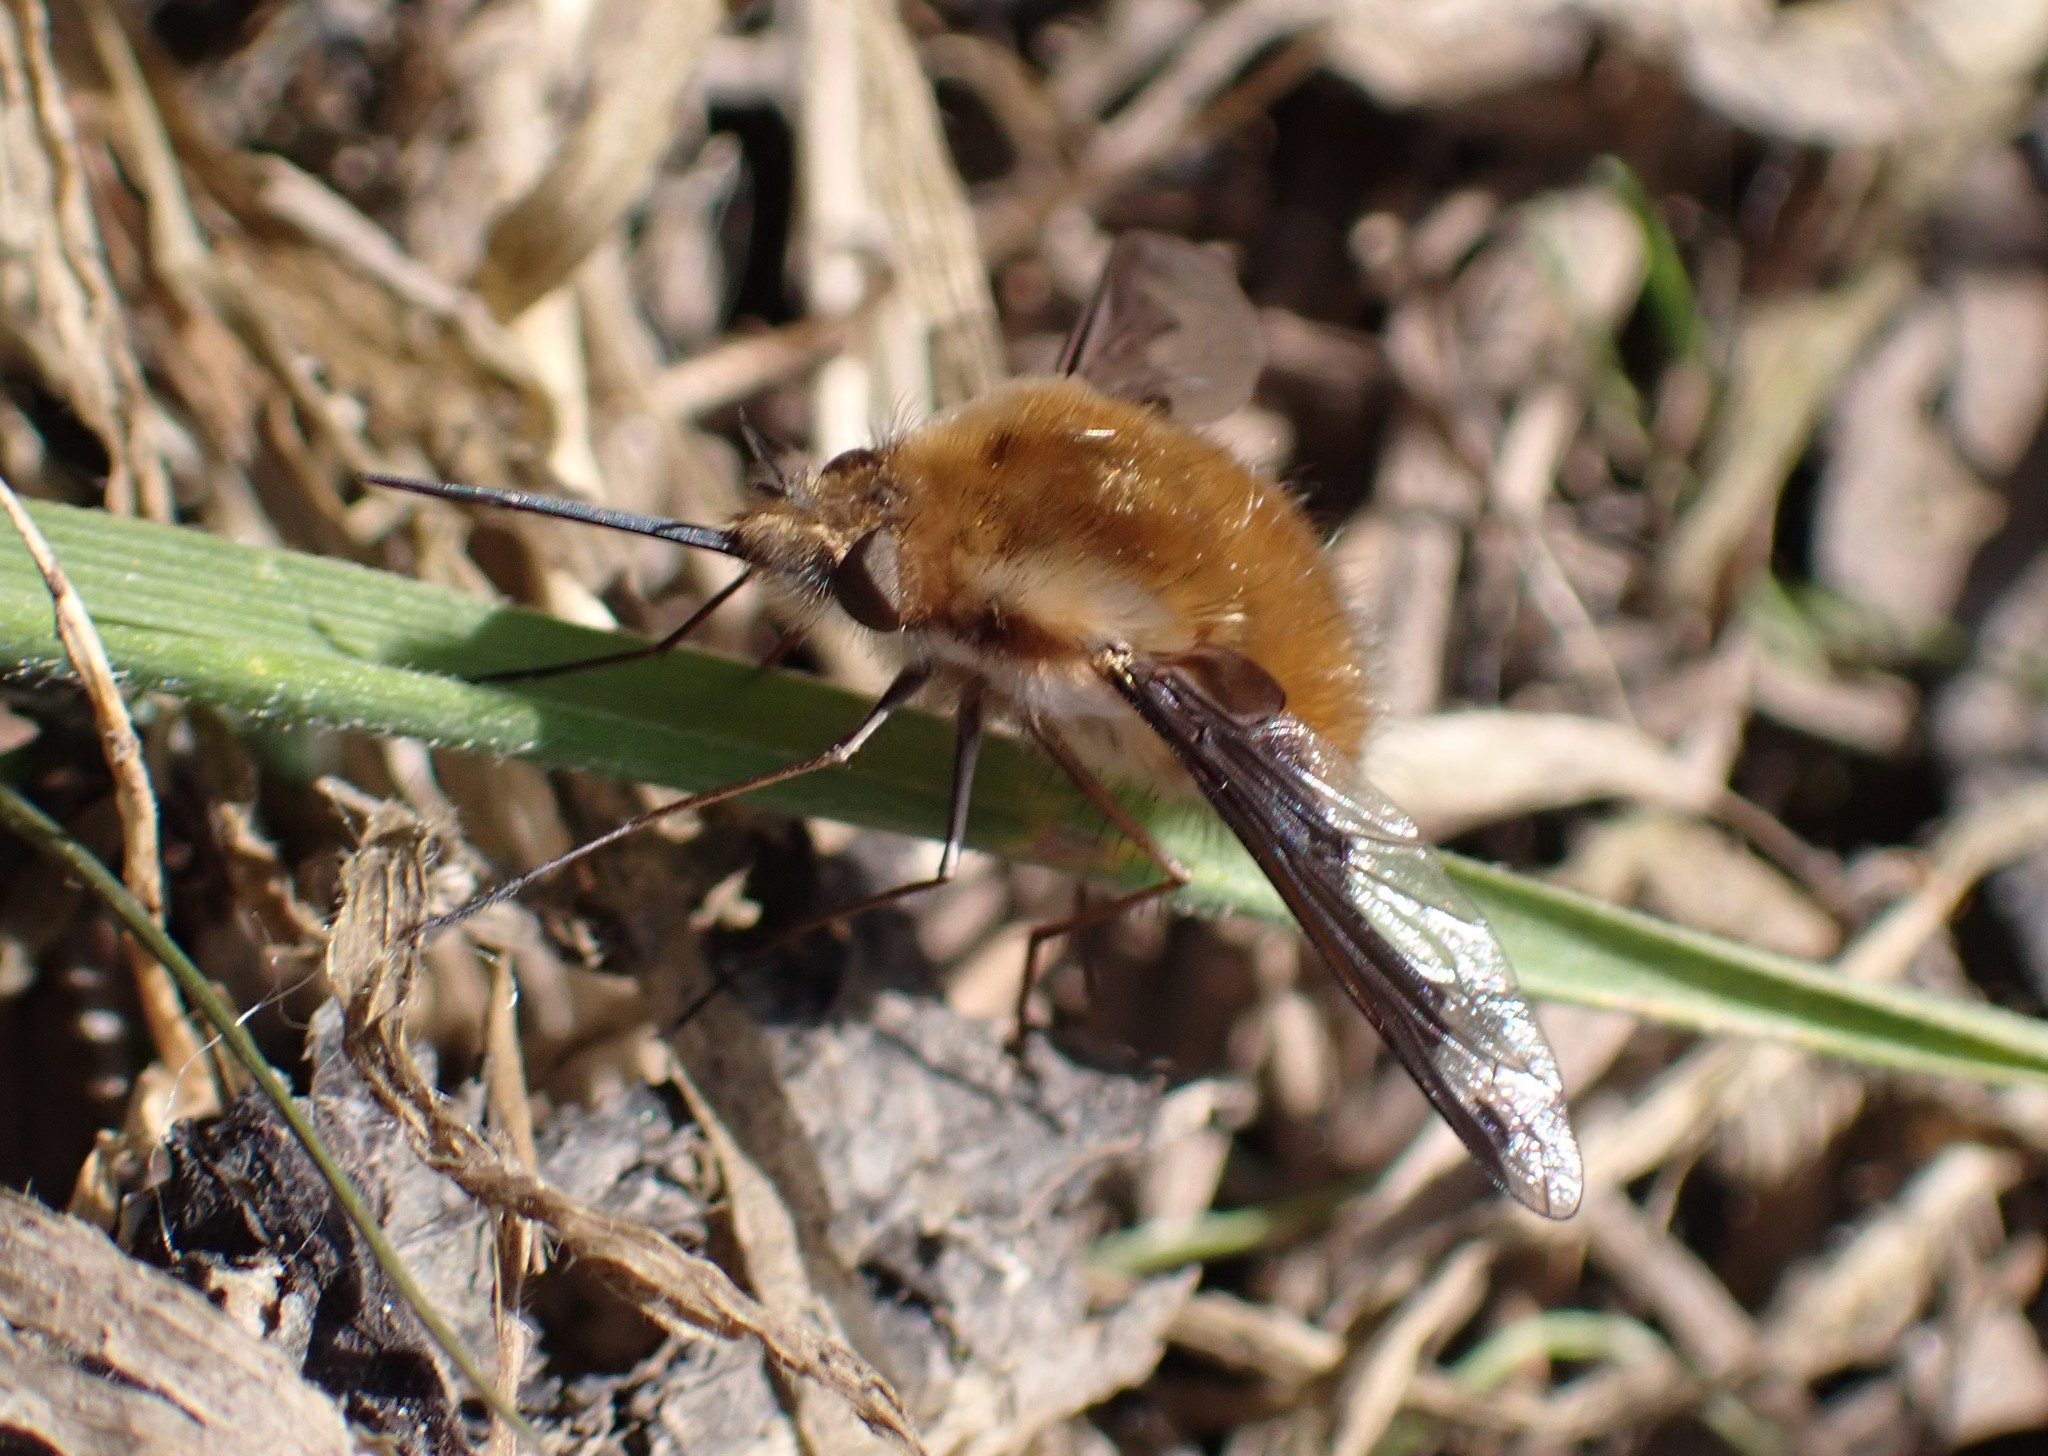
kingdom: Animalia
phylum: Arthropoda
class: Insecta
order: Diptera
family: Bombyliidae
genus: Bombylius
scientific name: Bombylius major
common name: Bee fly
